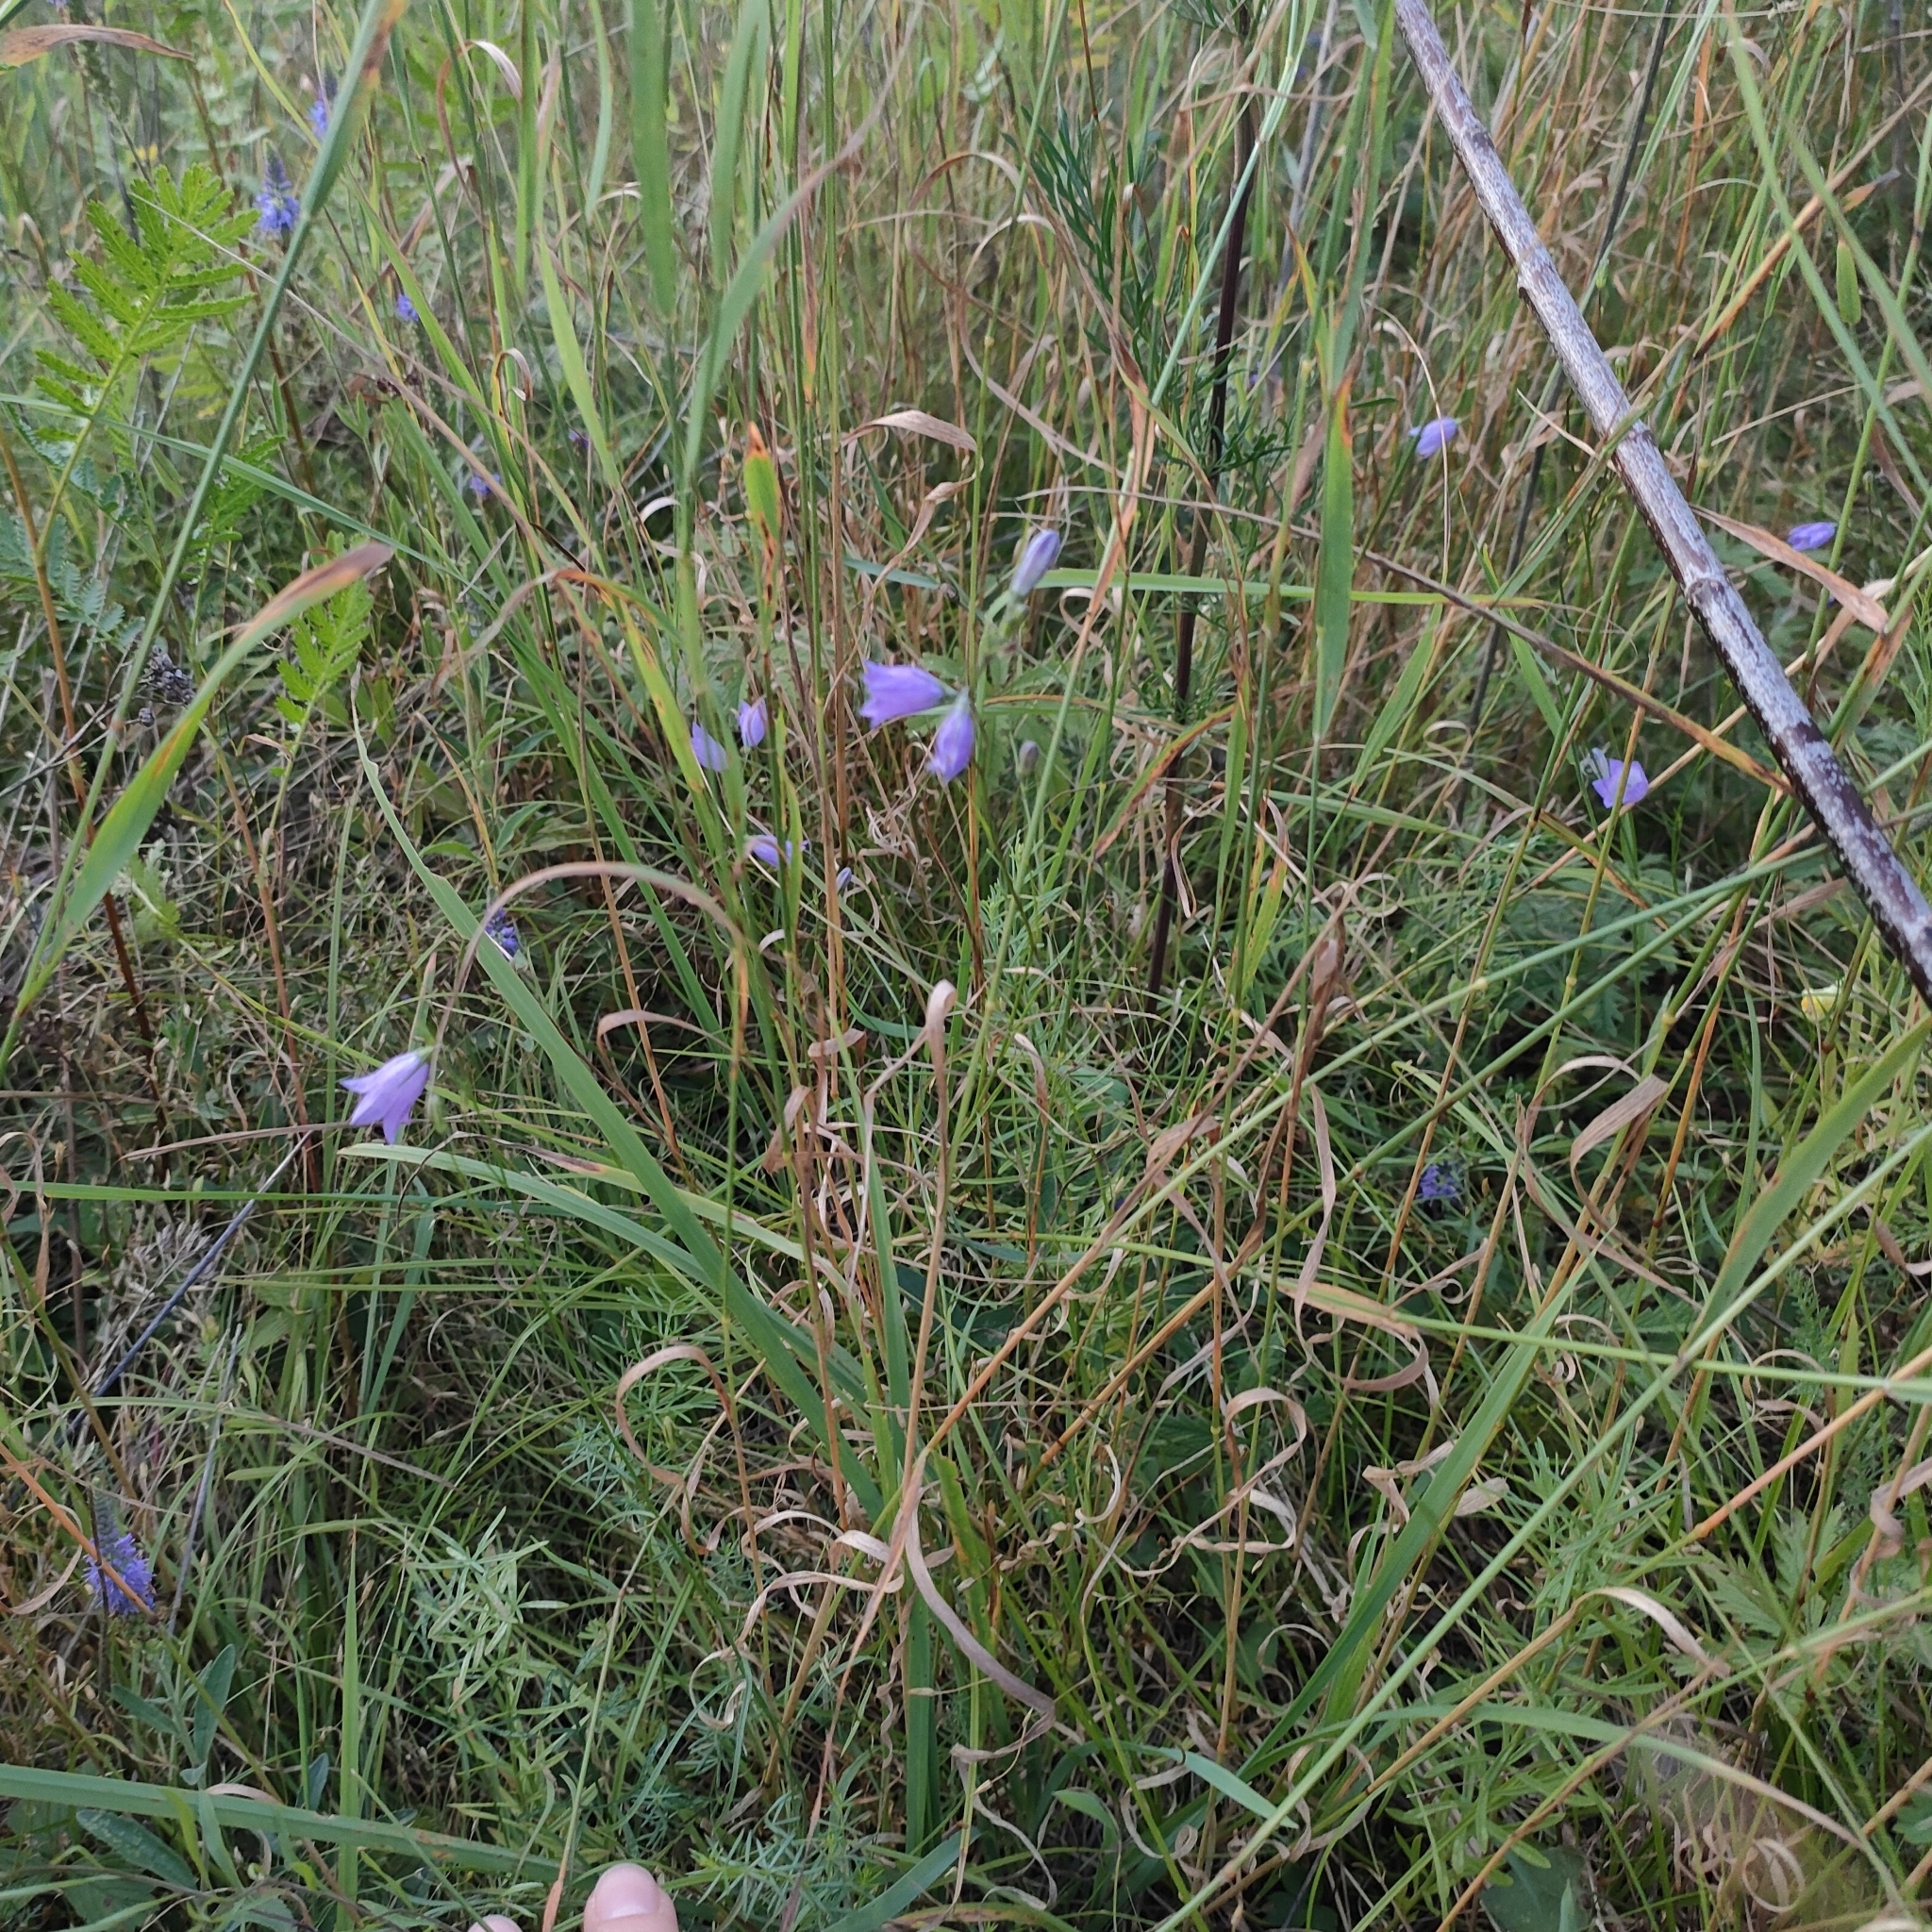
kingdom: Plantae
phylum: Tracheophyta
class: Magnoliopsida
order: Asterales
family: Campanulaceae
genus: Campanula
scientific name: Campanula rotundifolia
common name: Harebell
